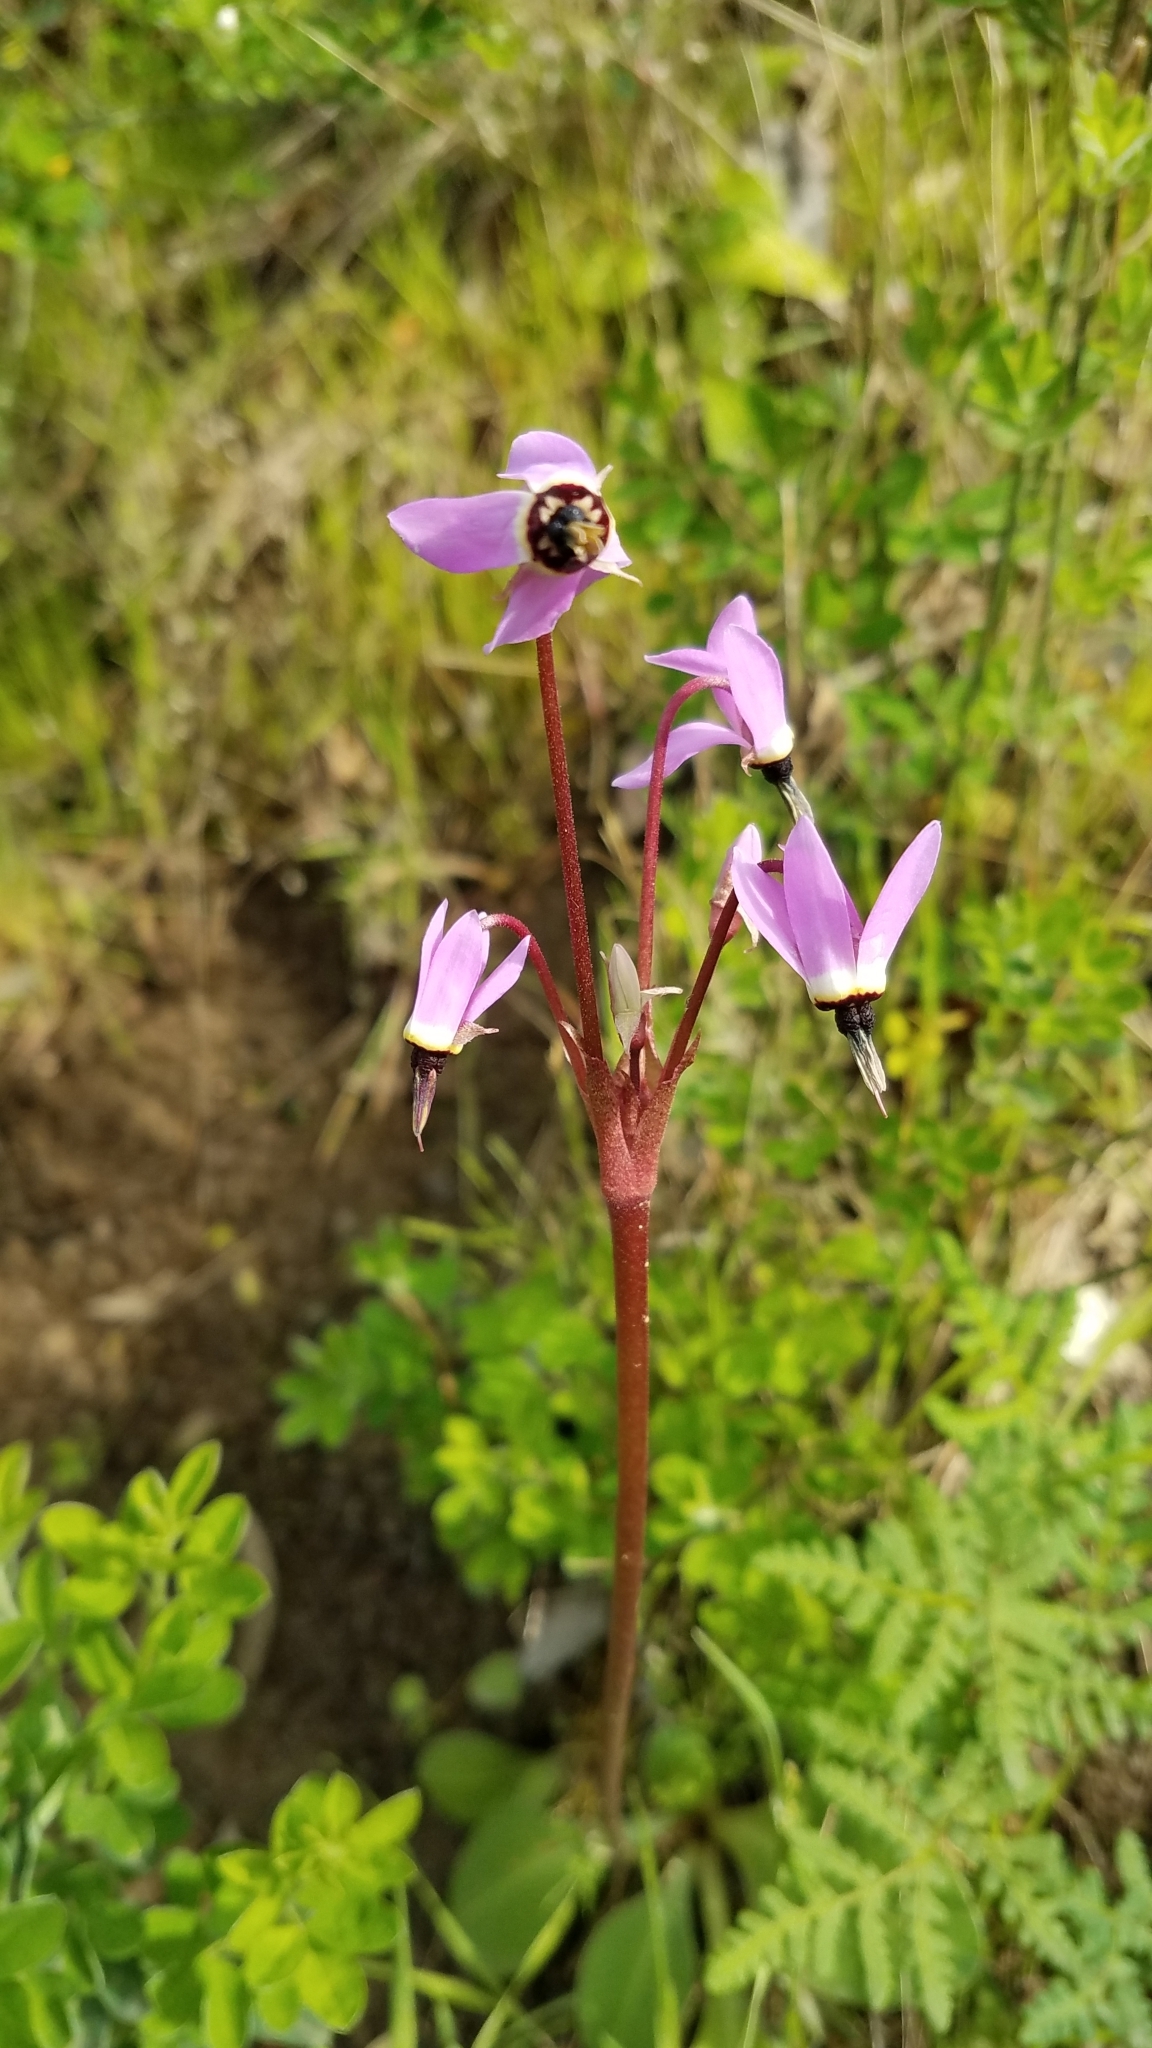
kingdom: Plantae
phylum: Tracheophyta
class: Magnoliopsida
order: Ericales
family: Primulaceae
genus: Dodecatheon
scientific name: Dodecatheon hendersonii
